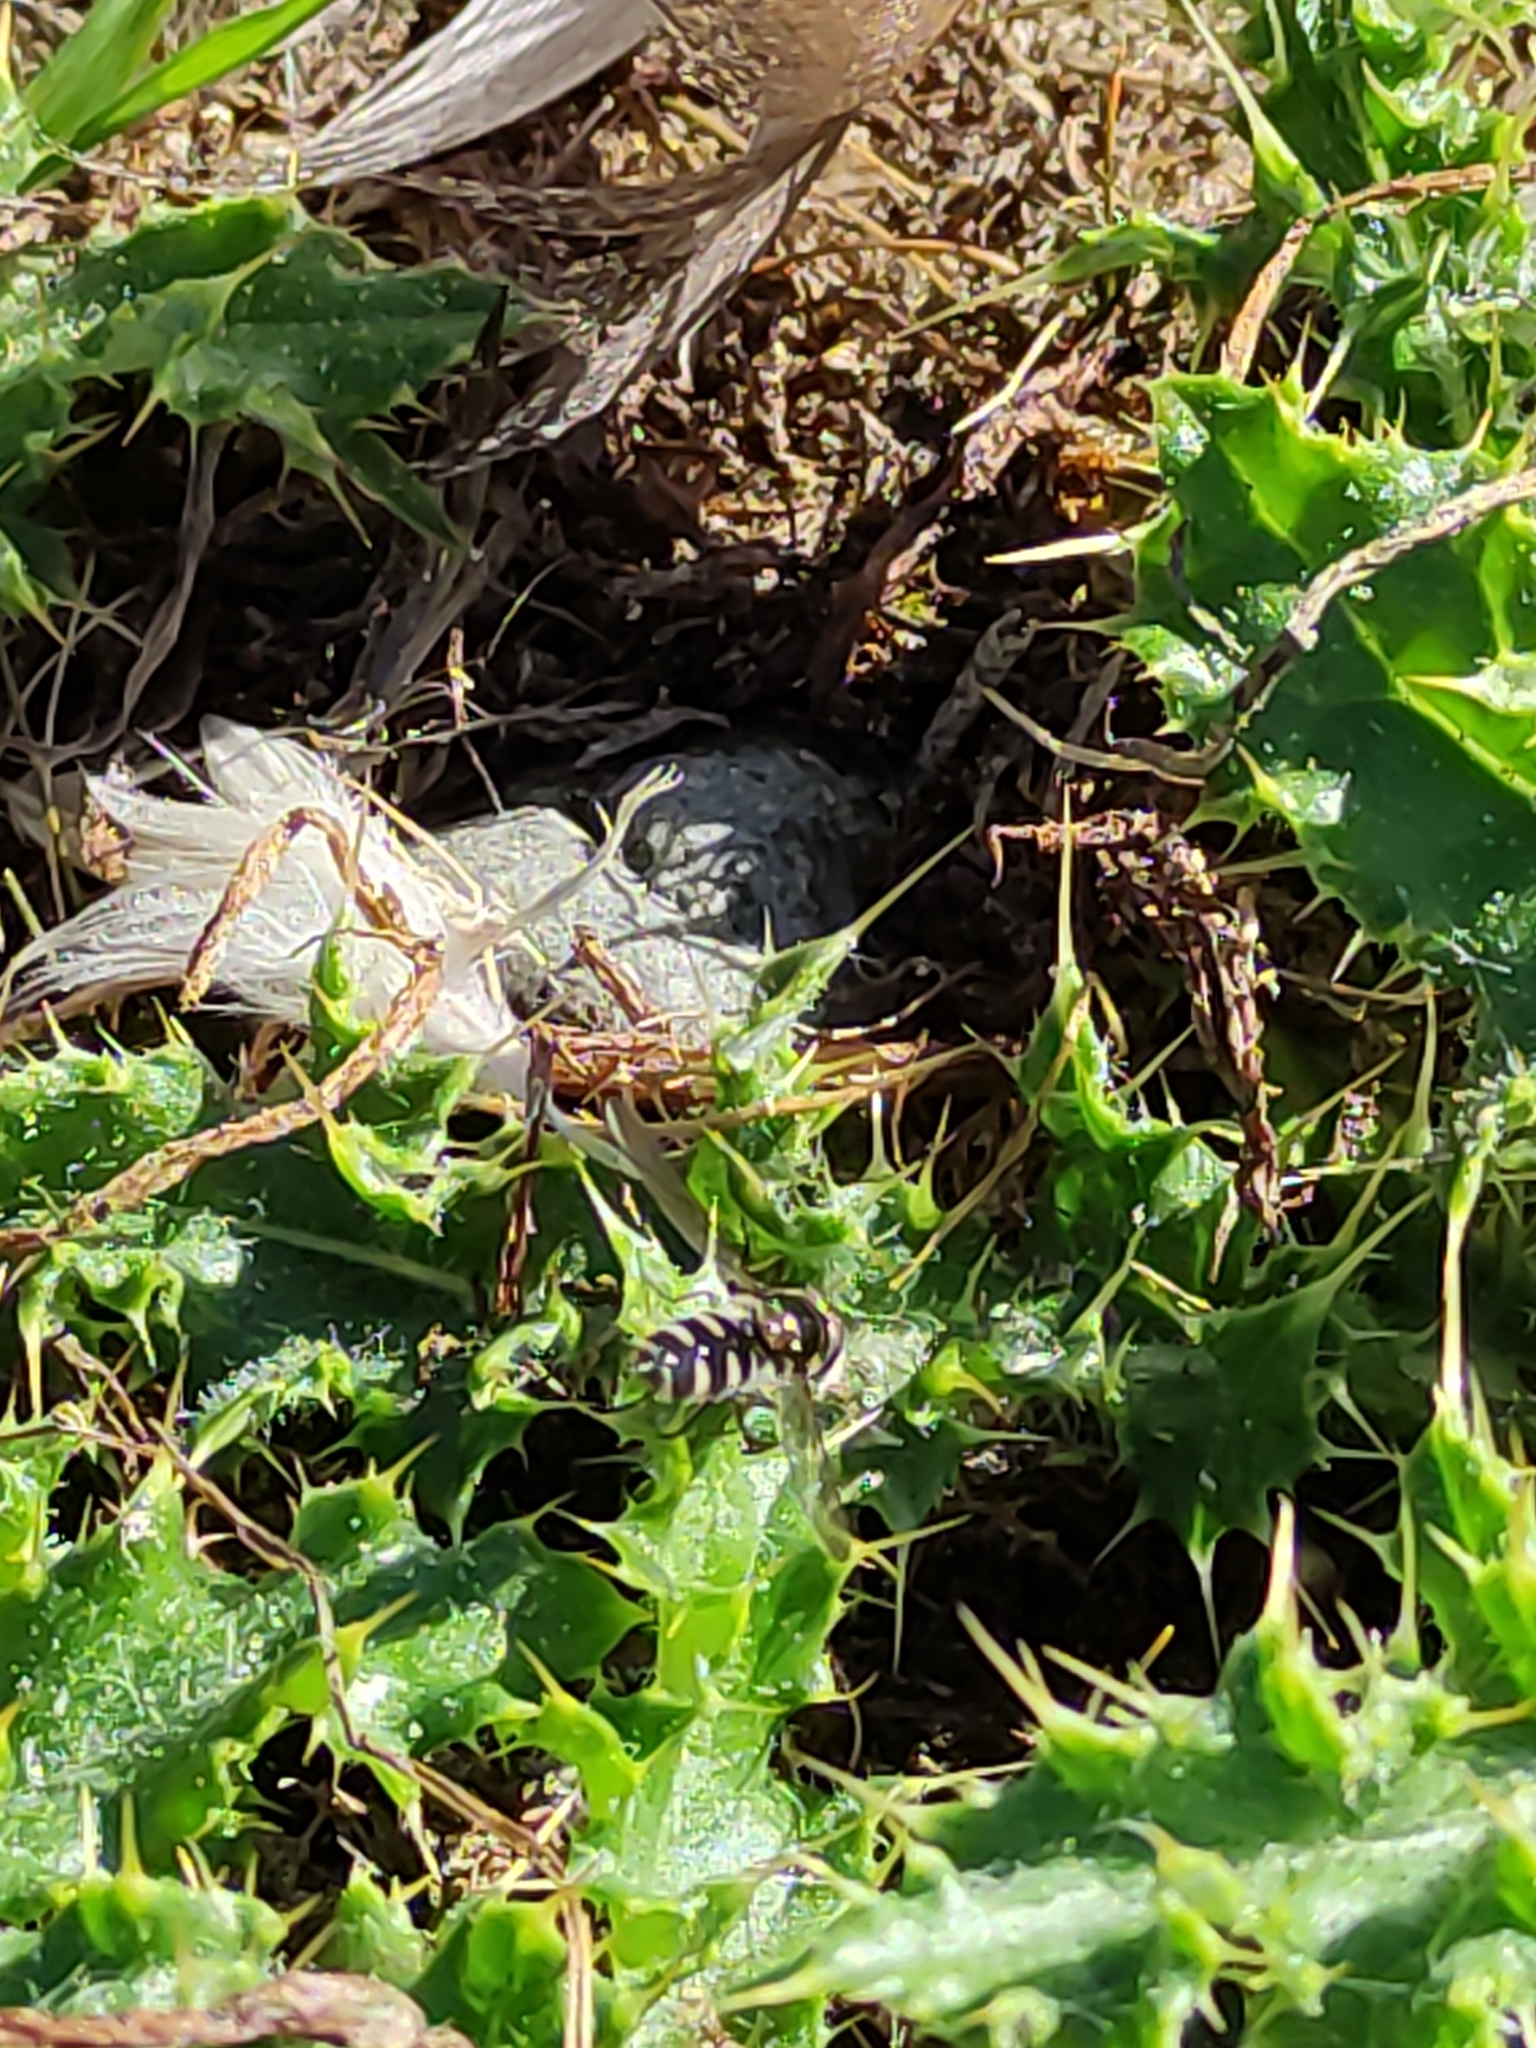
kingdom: Animalia
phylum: Arthropoda
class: Insecta
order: Diptera
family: Syrphidae
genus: Melangyna
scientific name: Melangyna novaezelandiae
